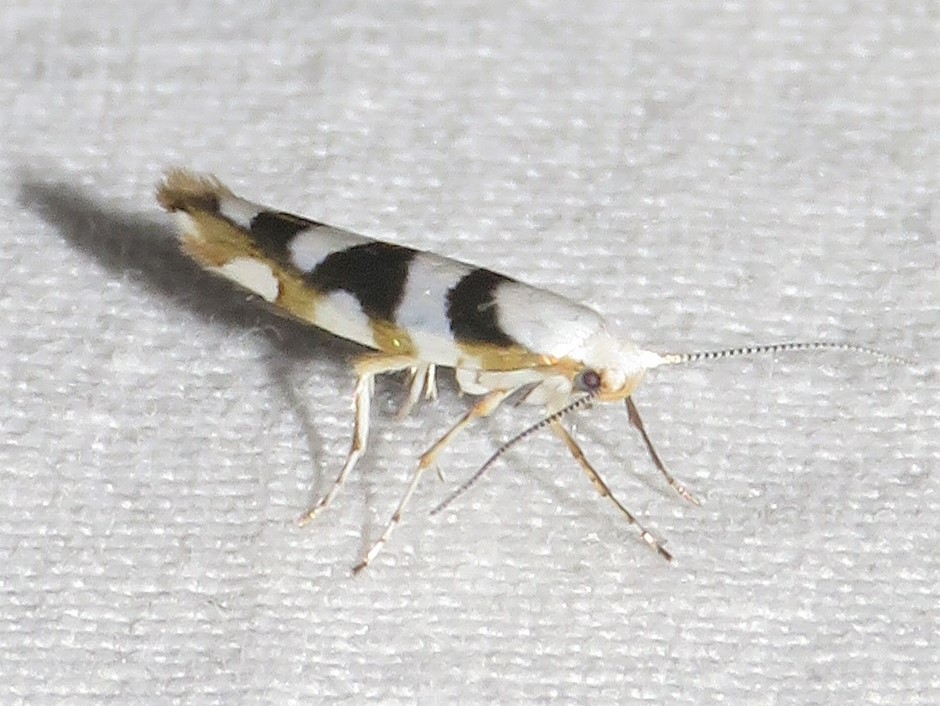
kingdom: Animalia
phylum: Arthropoda
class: Insecta
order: Lepidoptera
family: Argyresthiidae
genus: Argyresthia
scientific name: Argyresthia calliphanes
